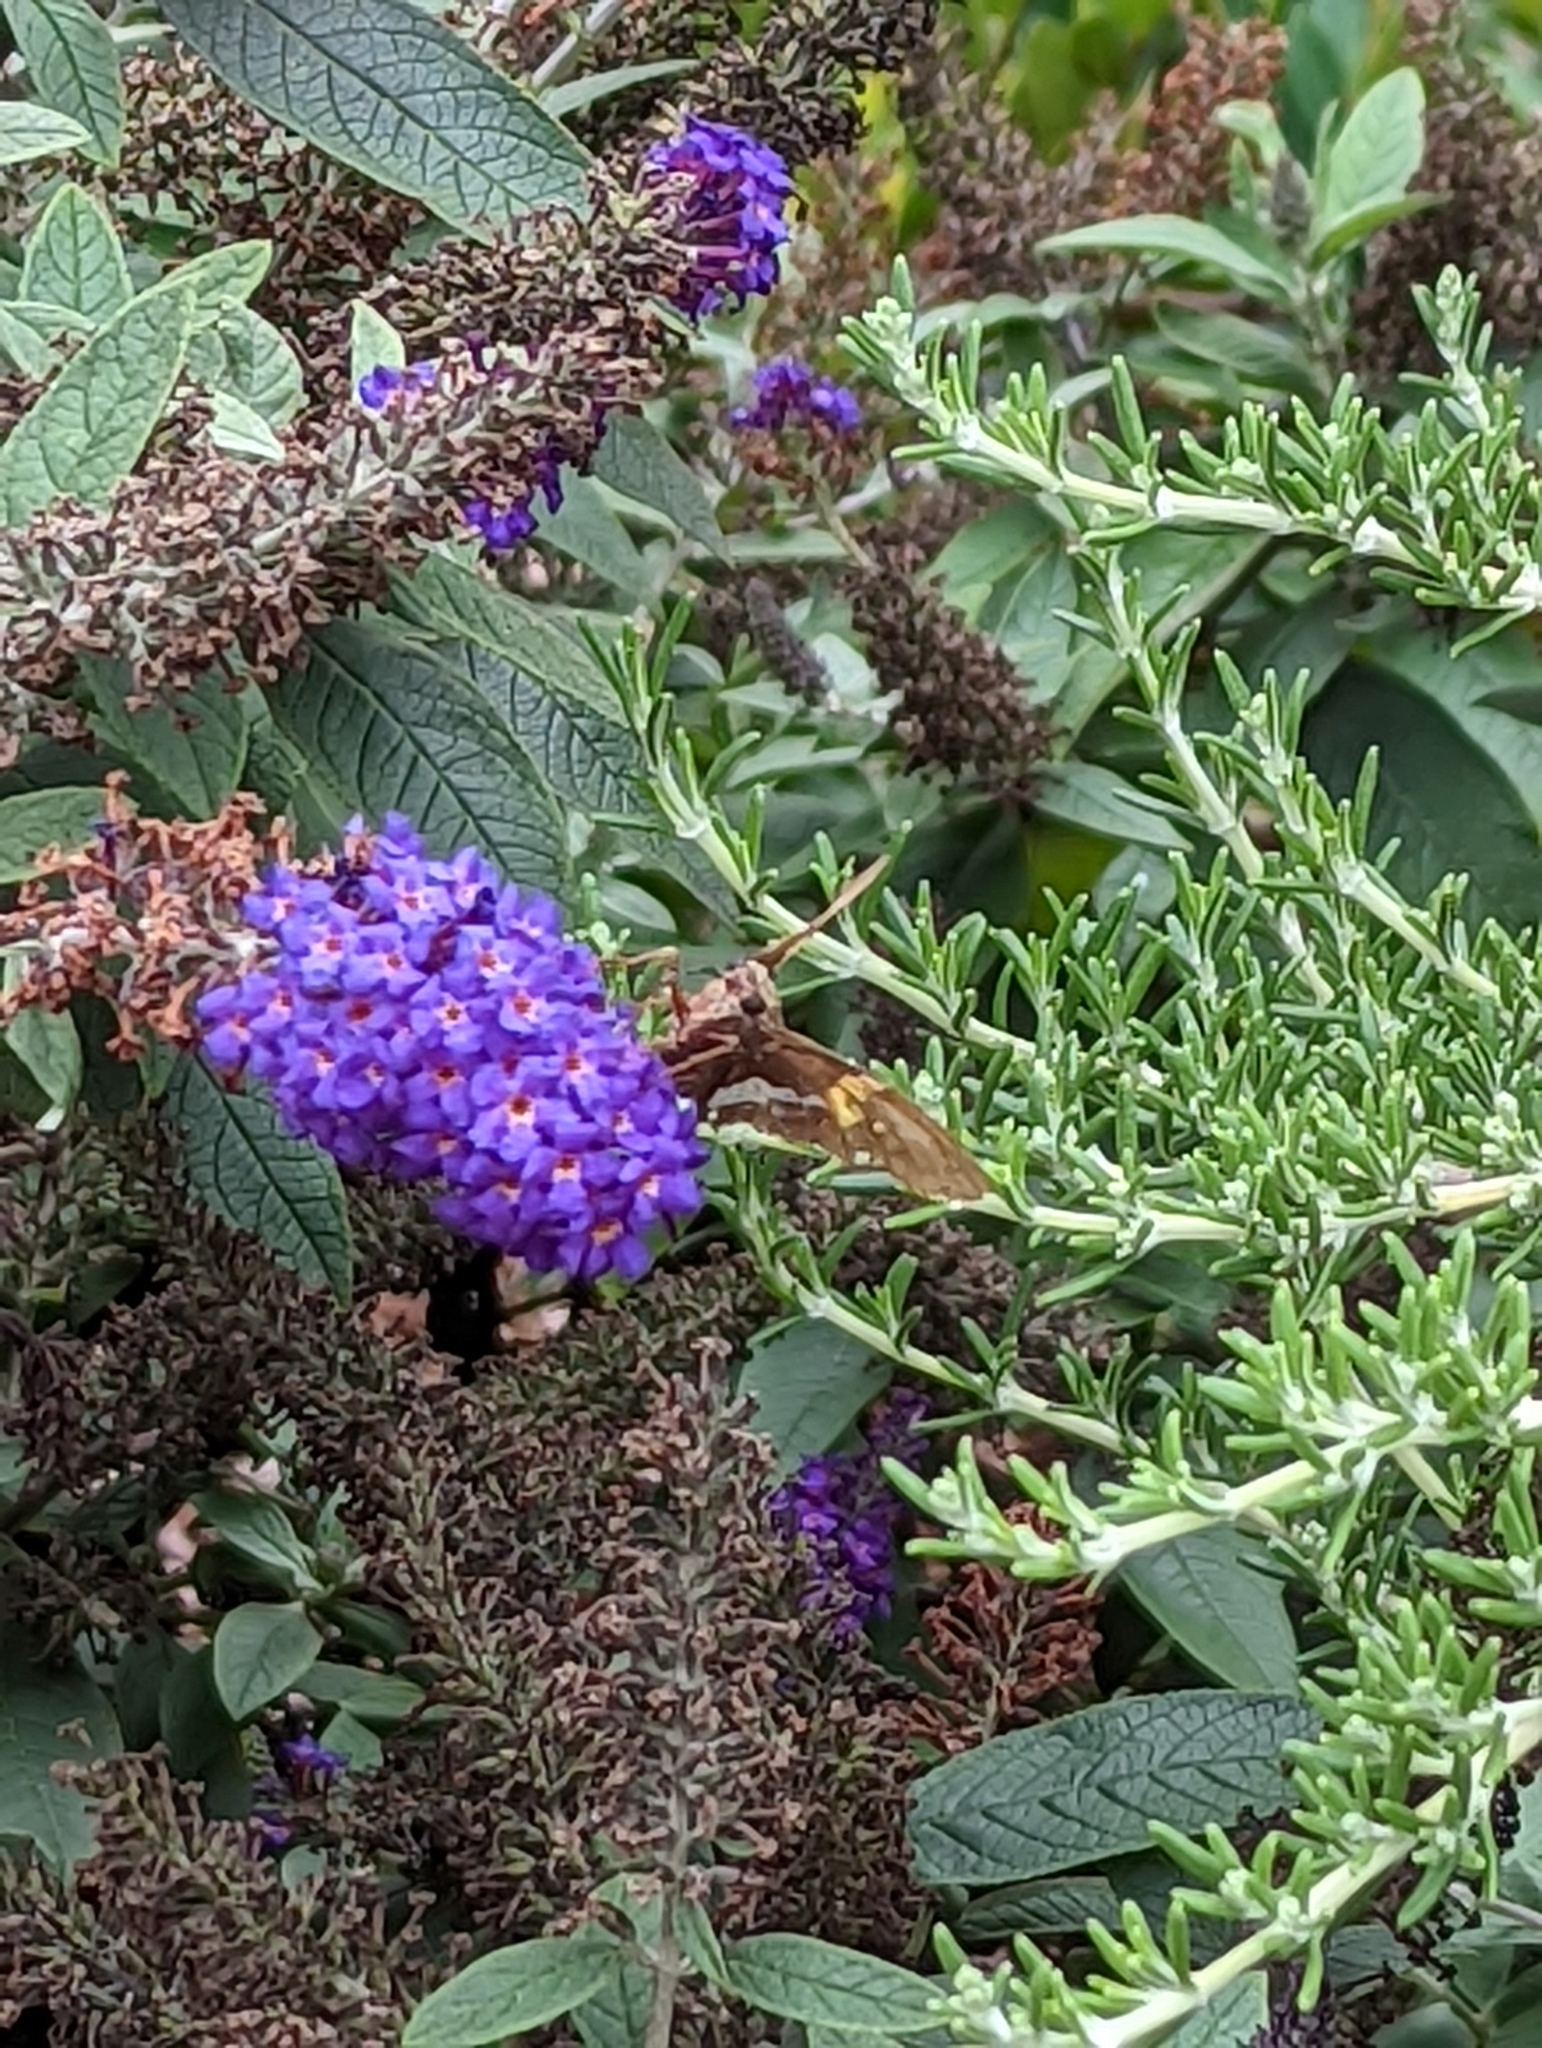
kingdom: Animalia
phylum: Arthropoda
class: Insecta
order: Lepidoptera
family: Hesperiidae
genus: Epargyreus
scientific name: Epargyreus clarus
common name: Silver-spotted skipper
